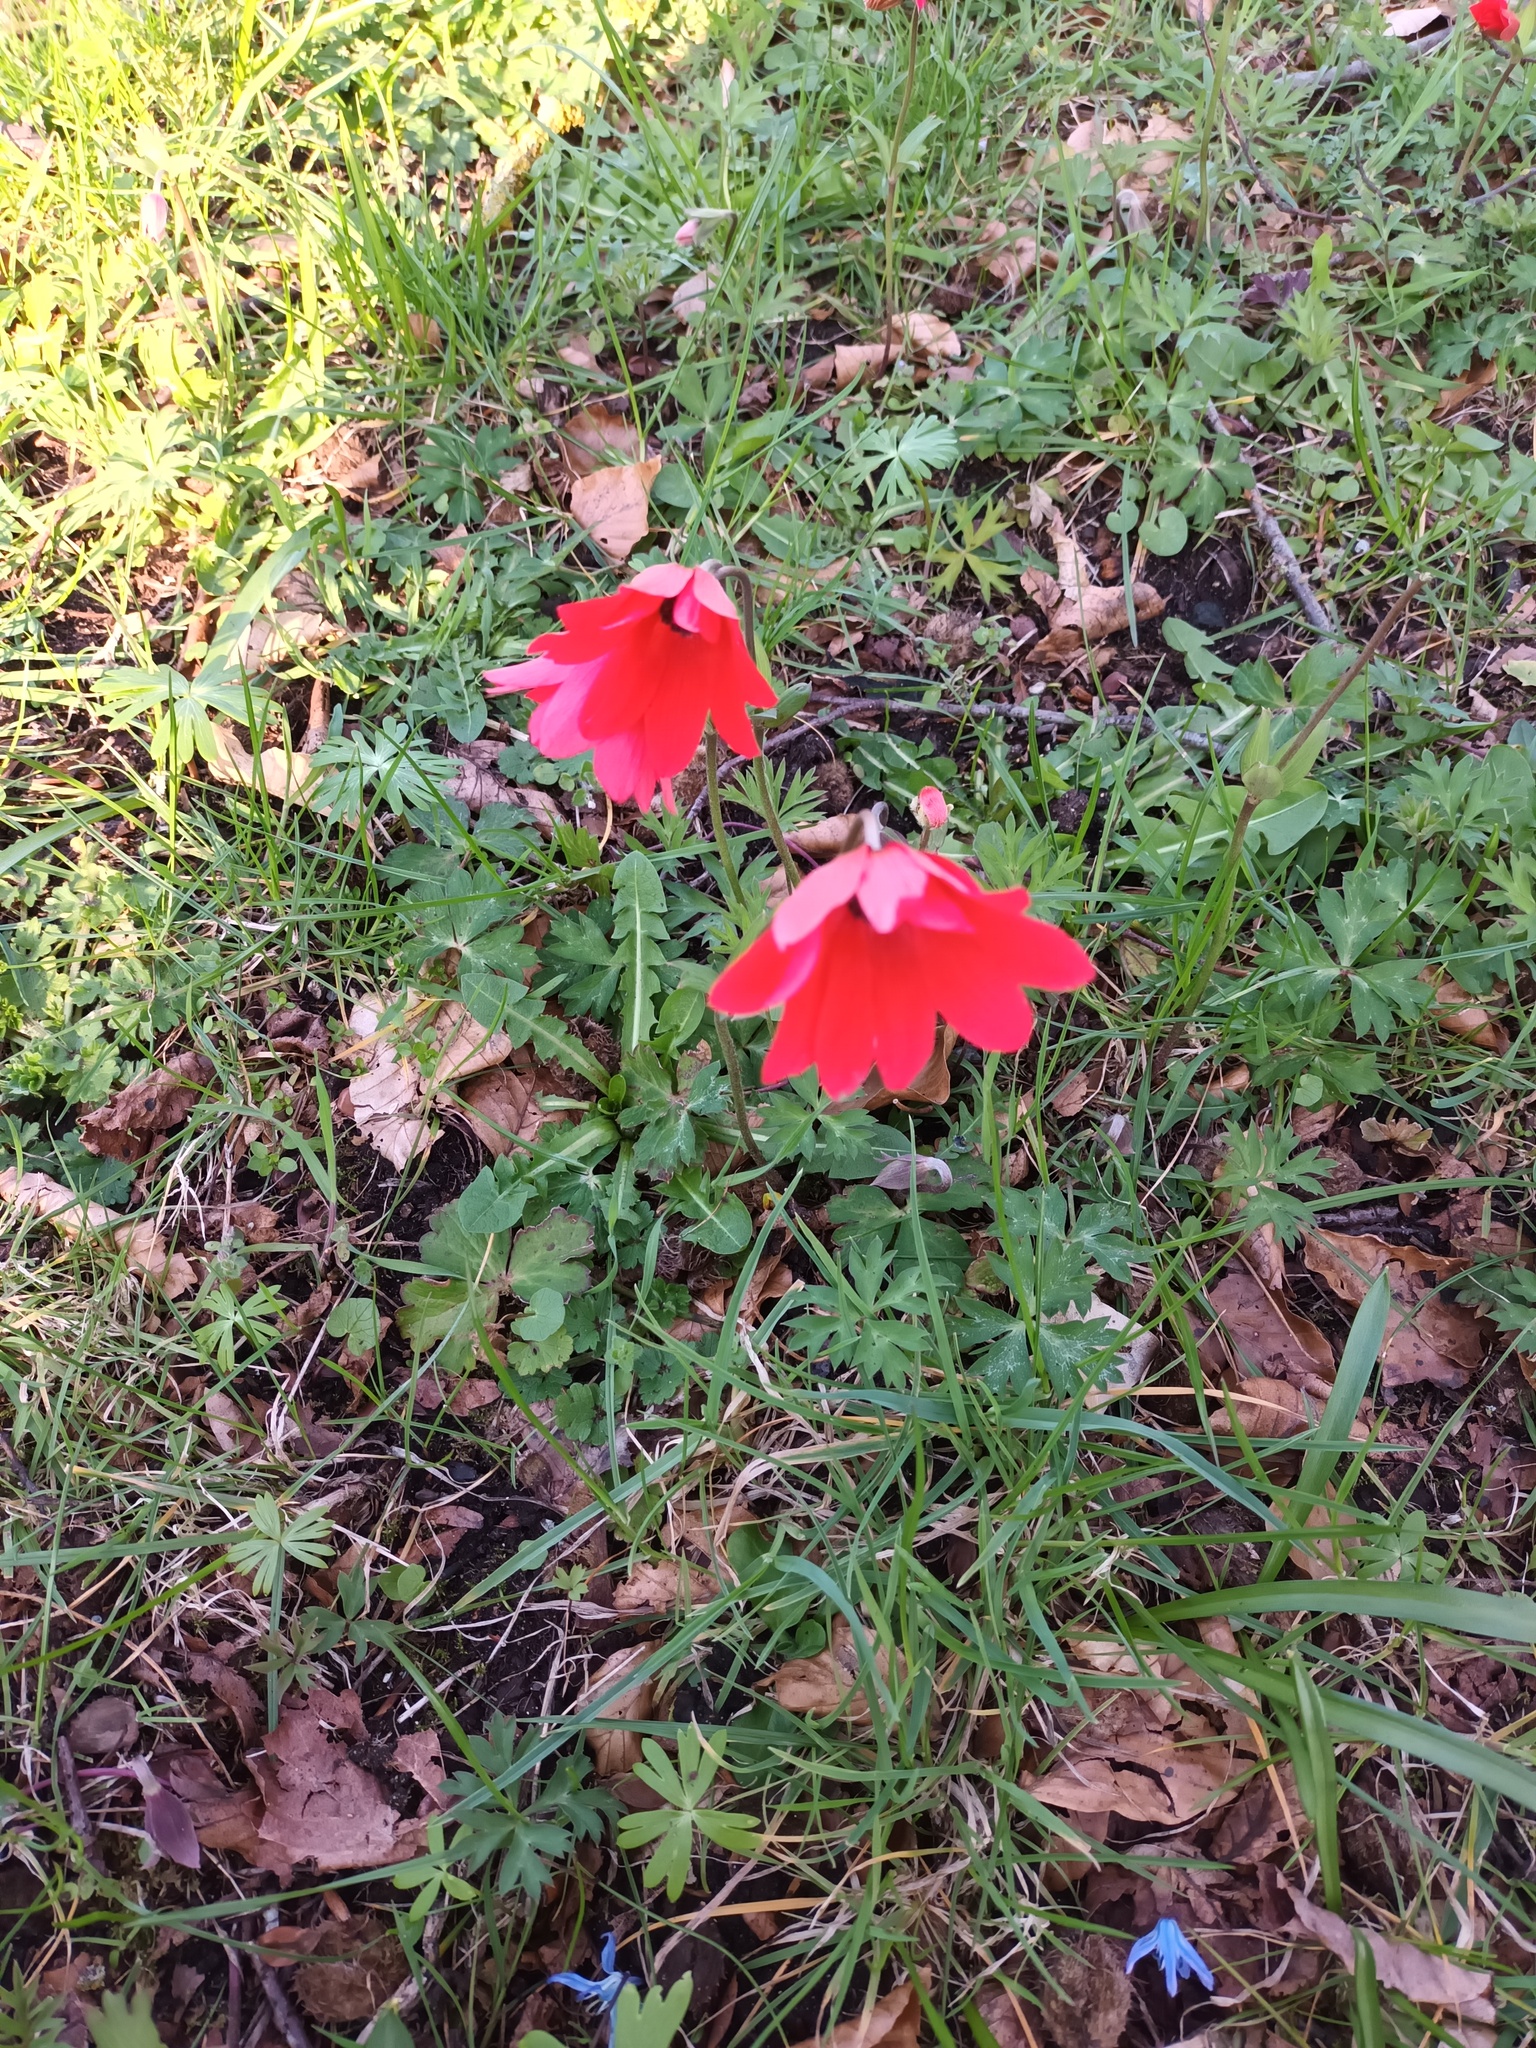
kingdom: Plantae
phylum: Tracheophyta
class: Magnoliopsida
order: Ranunculales
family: Ranunculaceae
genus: Anemone
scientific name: Anemone pavonina
